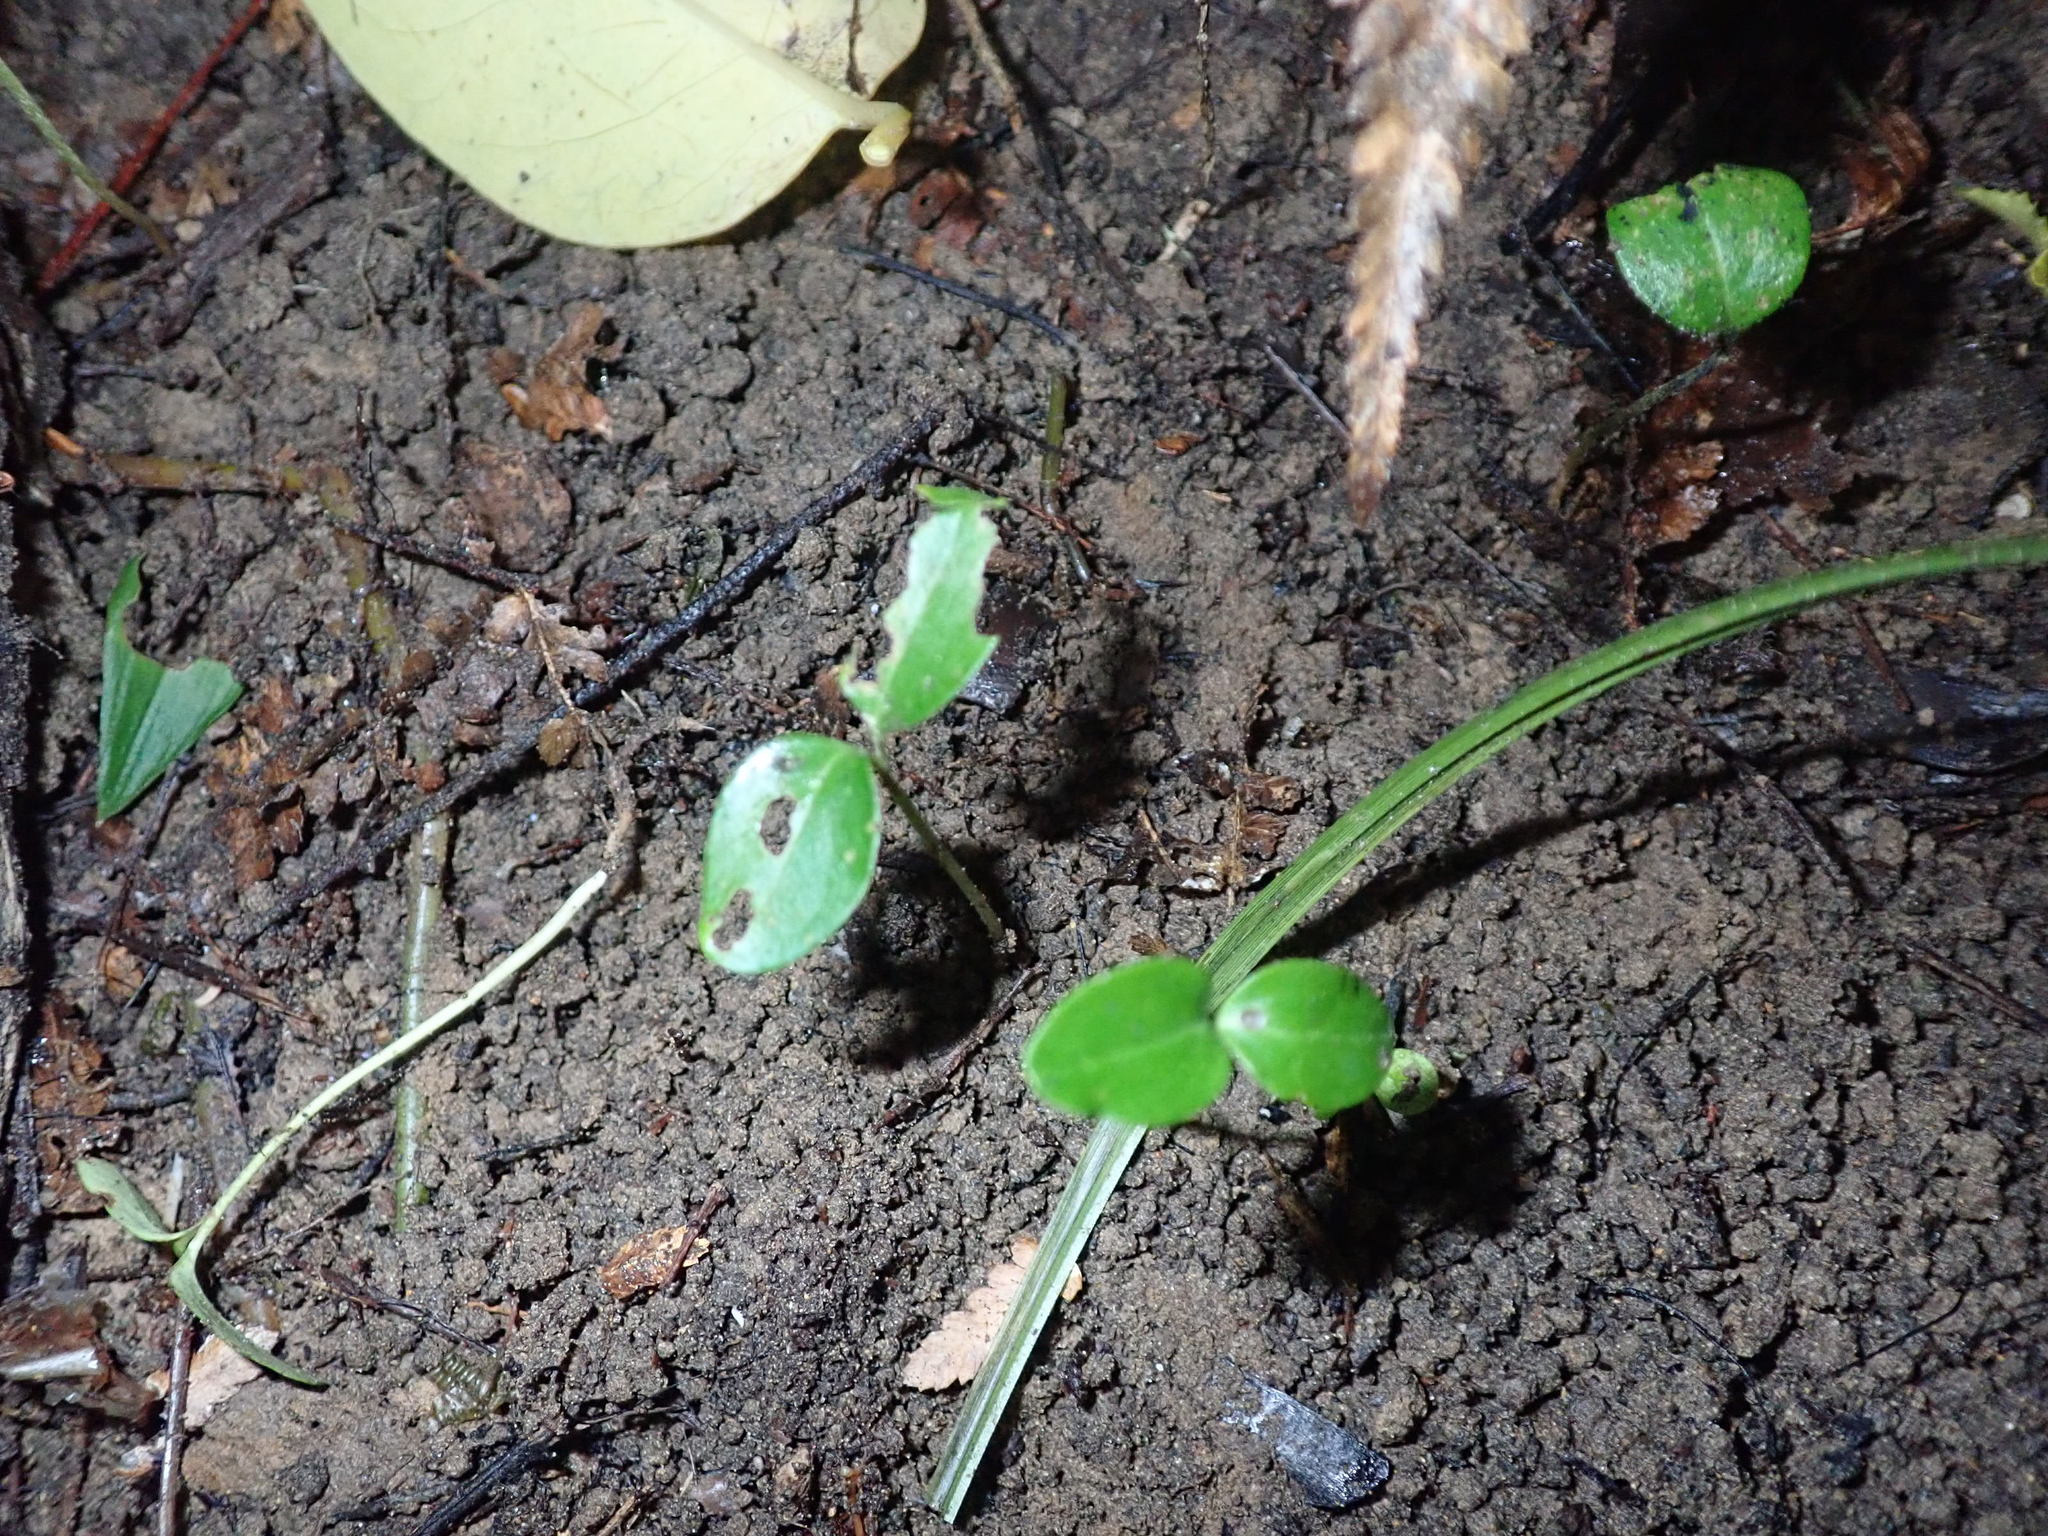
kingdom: Plantae
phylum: Tracheophyta
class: Magnoliopsida
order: Lamiales
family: Oleaceae
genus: Ligustrum
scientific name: Ligustrum lucidum
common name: Glossy privet
